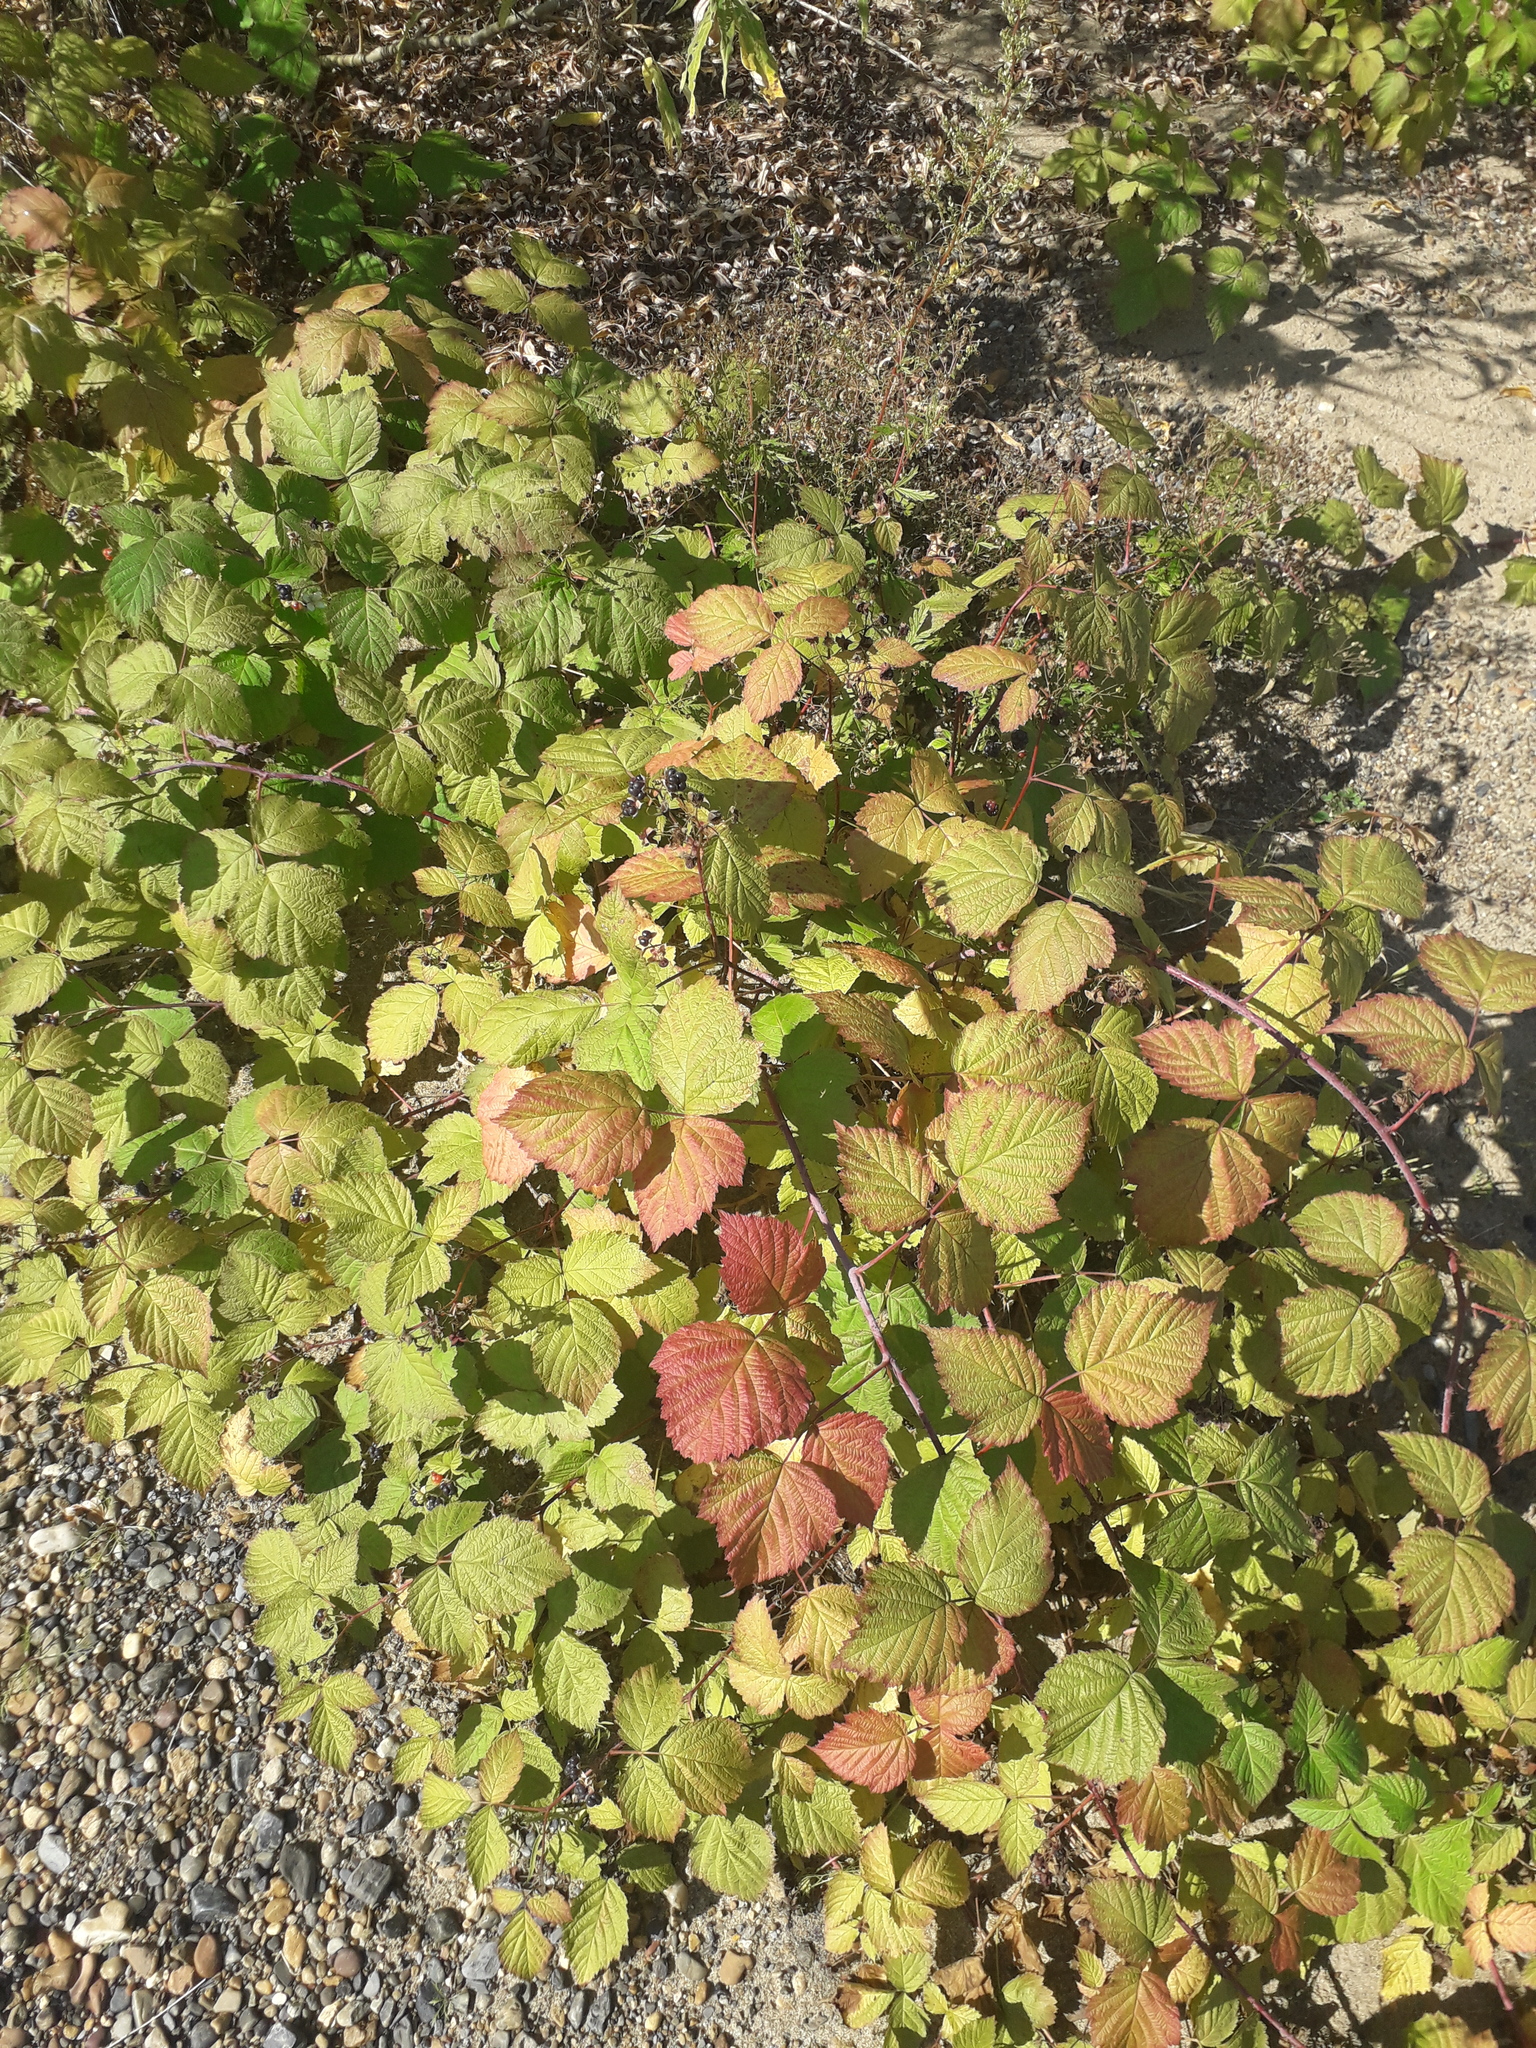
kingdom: Plantae
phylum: Tracheophyta
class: Magnoliopsida
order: Rosales
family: Rosaceae
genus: Rubus
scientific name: Rubus caesius
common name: Dewberry
